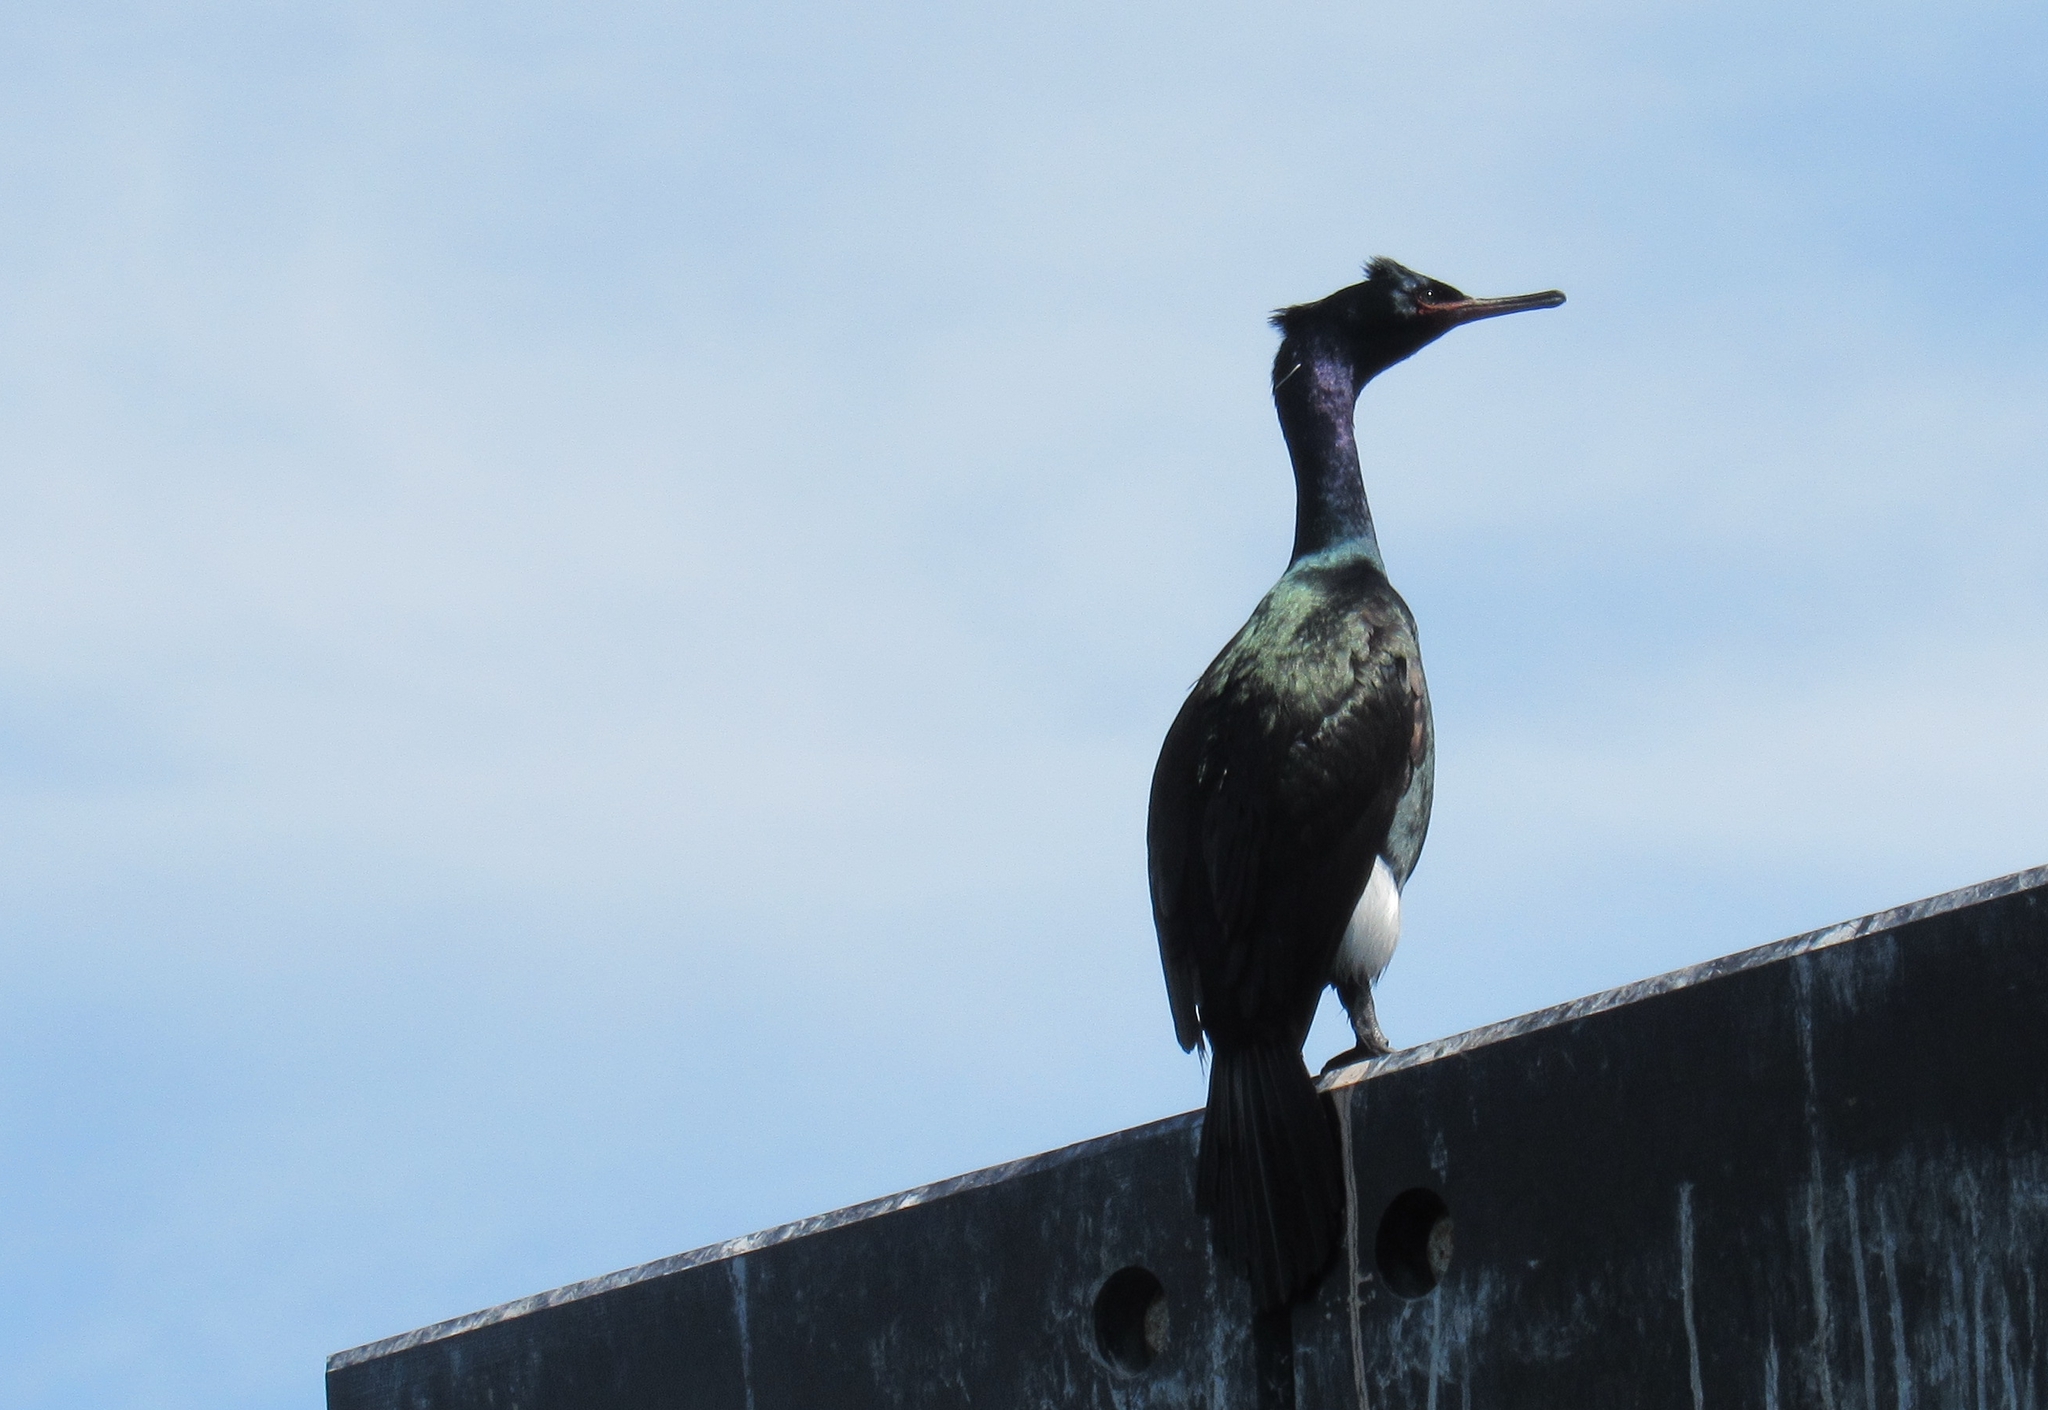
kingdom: Animalia
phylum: Chordata
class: Aves
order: Suliformes
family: Phalacrocoracidae
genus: Phalacrocorax
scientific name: Phalacrocorax pelagicus
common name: Pelagic cormorant
